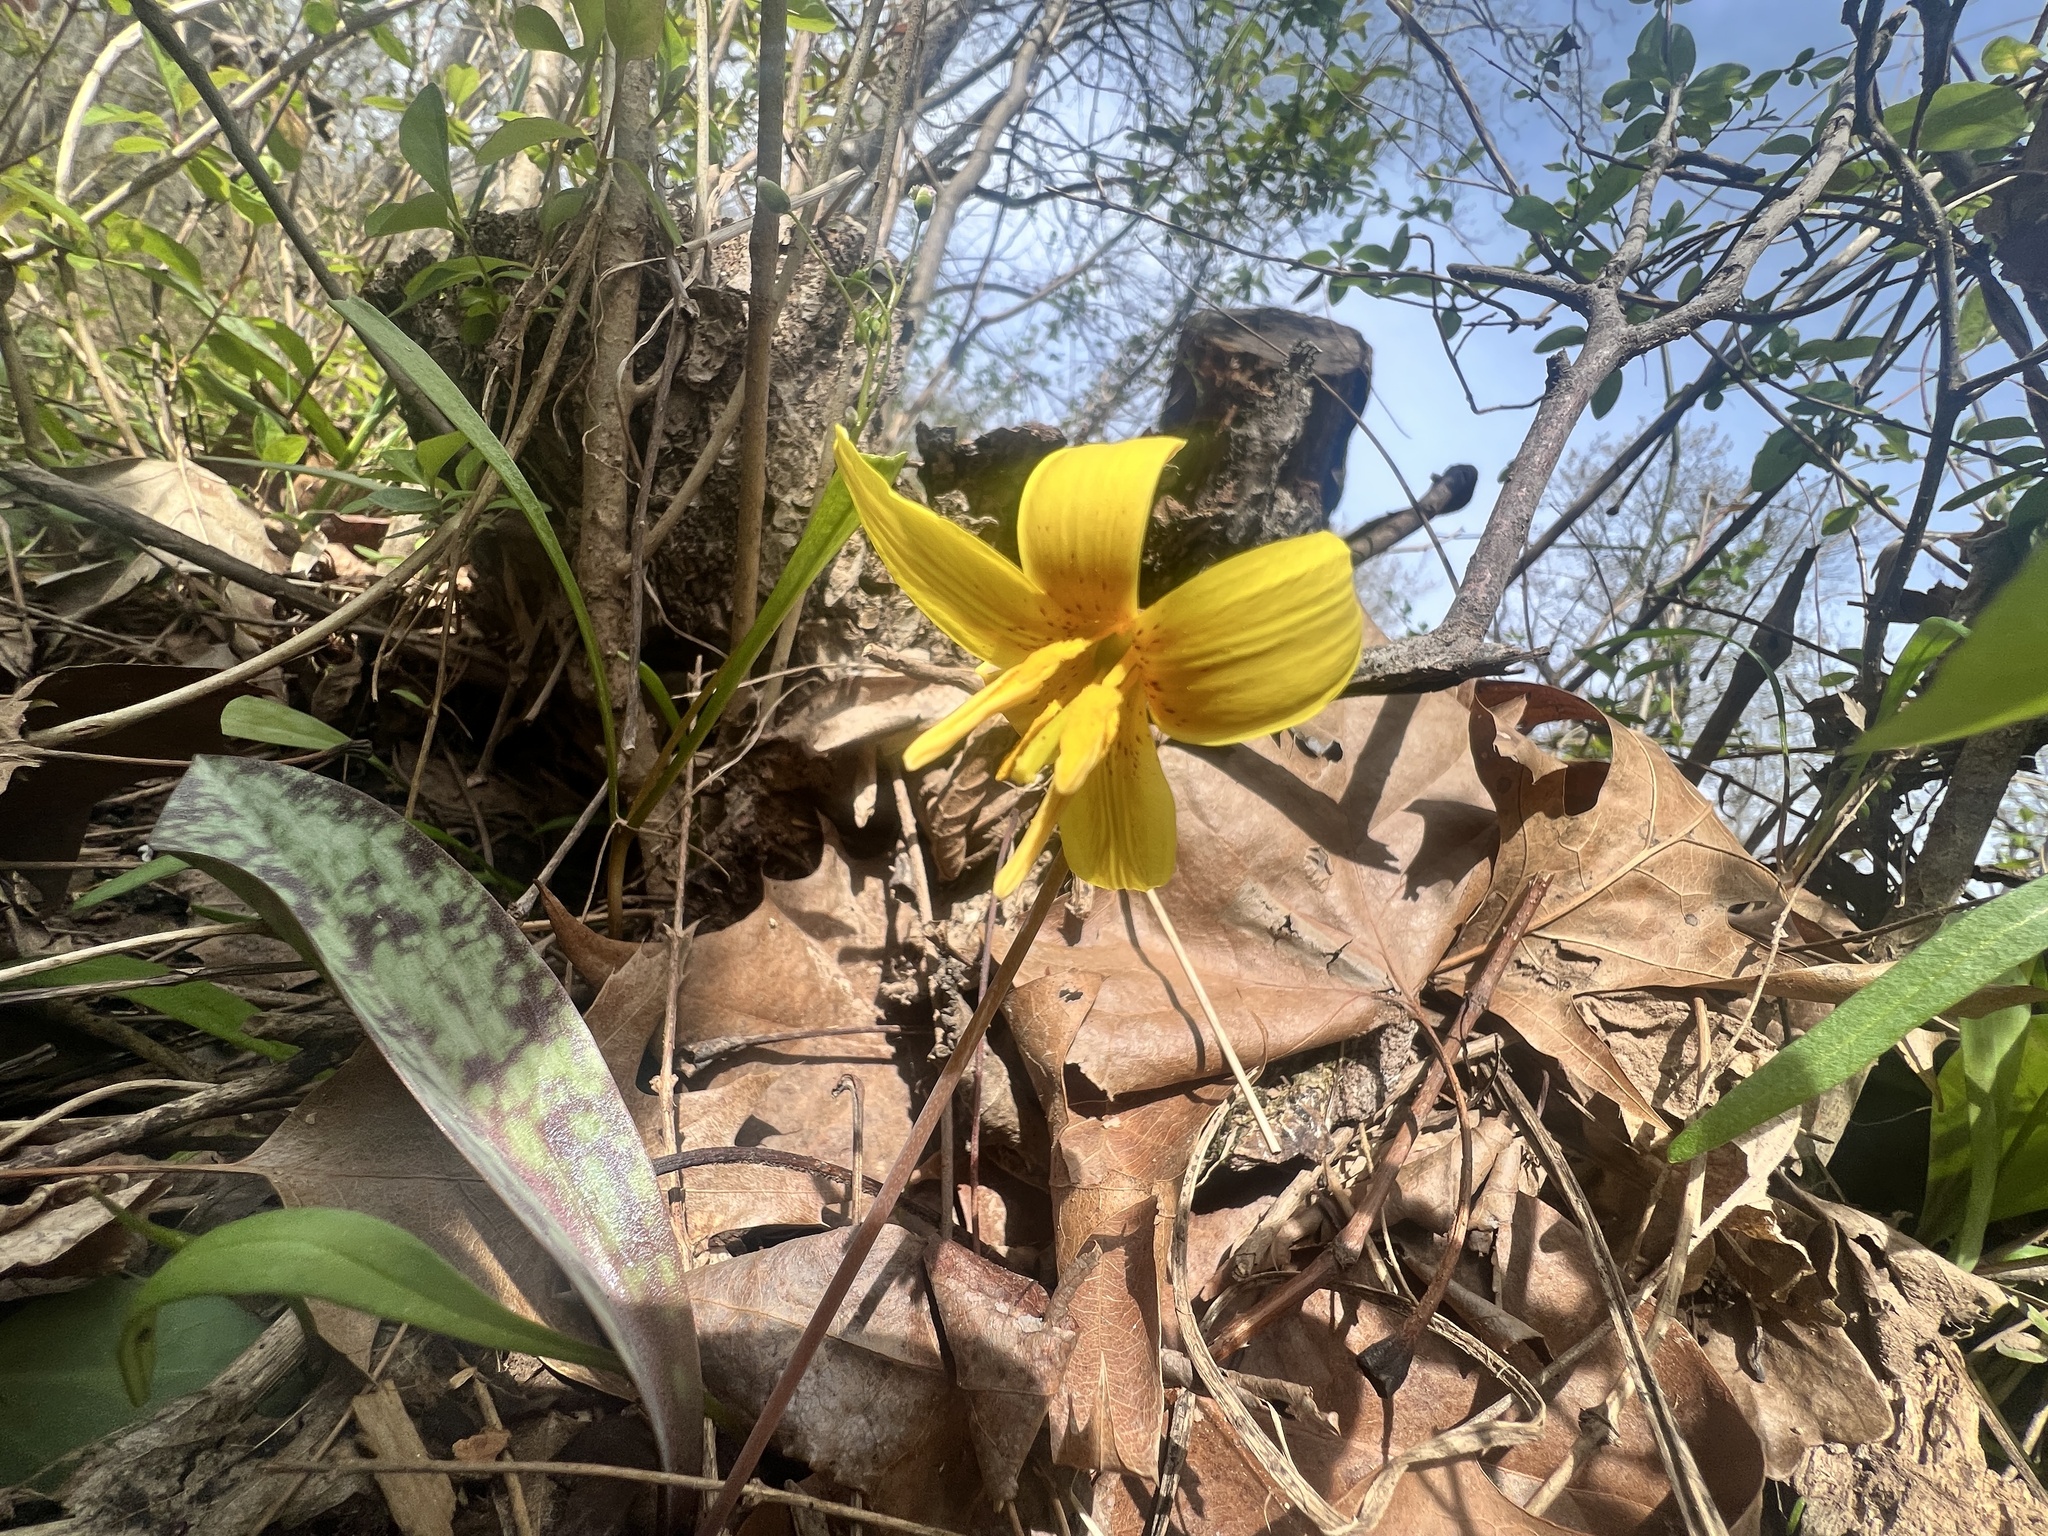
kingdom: Plantae
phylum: Tracheophyta
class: Liliopsida
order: Liliales
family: Liliaceae
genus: Erythronium
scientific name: Erythronium americanum
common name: Yellow adder's-tongue
